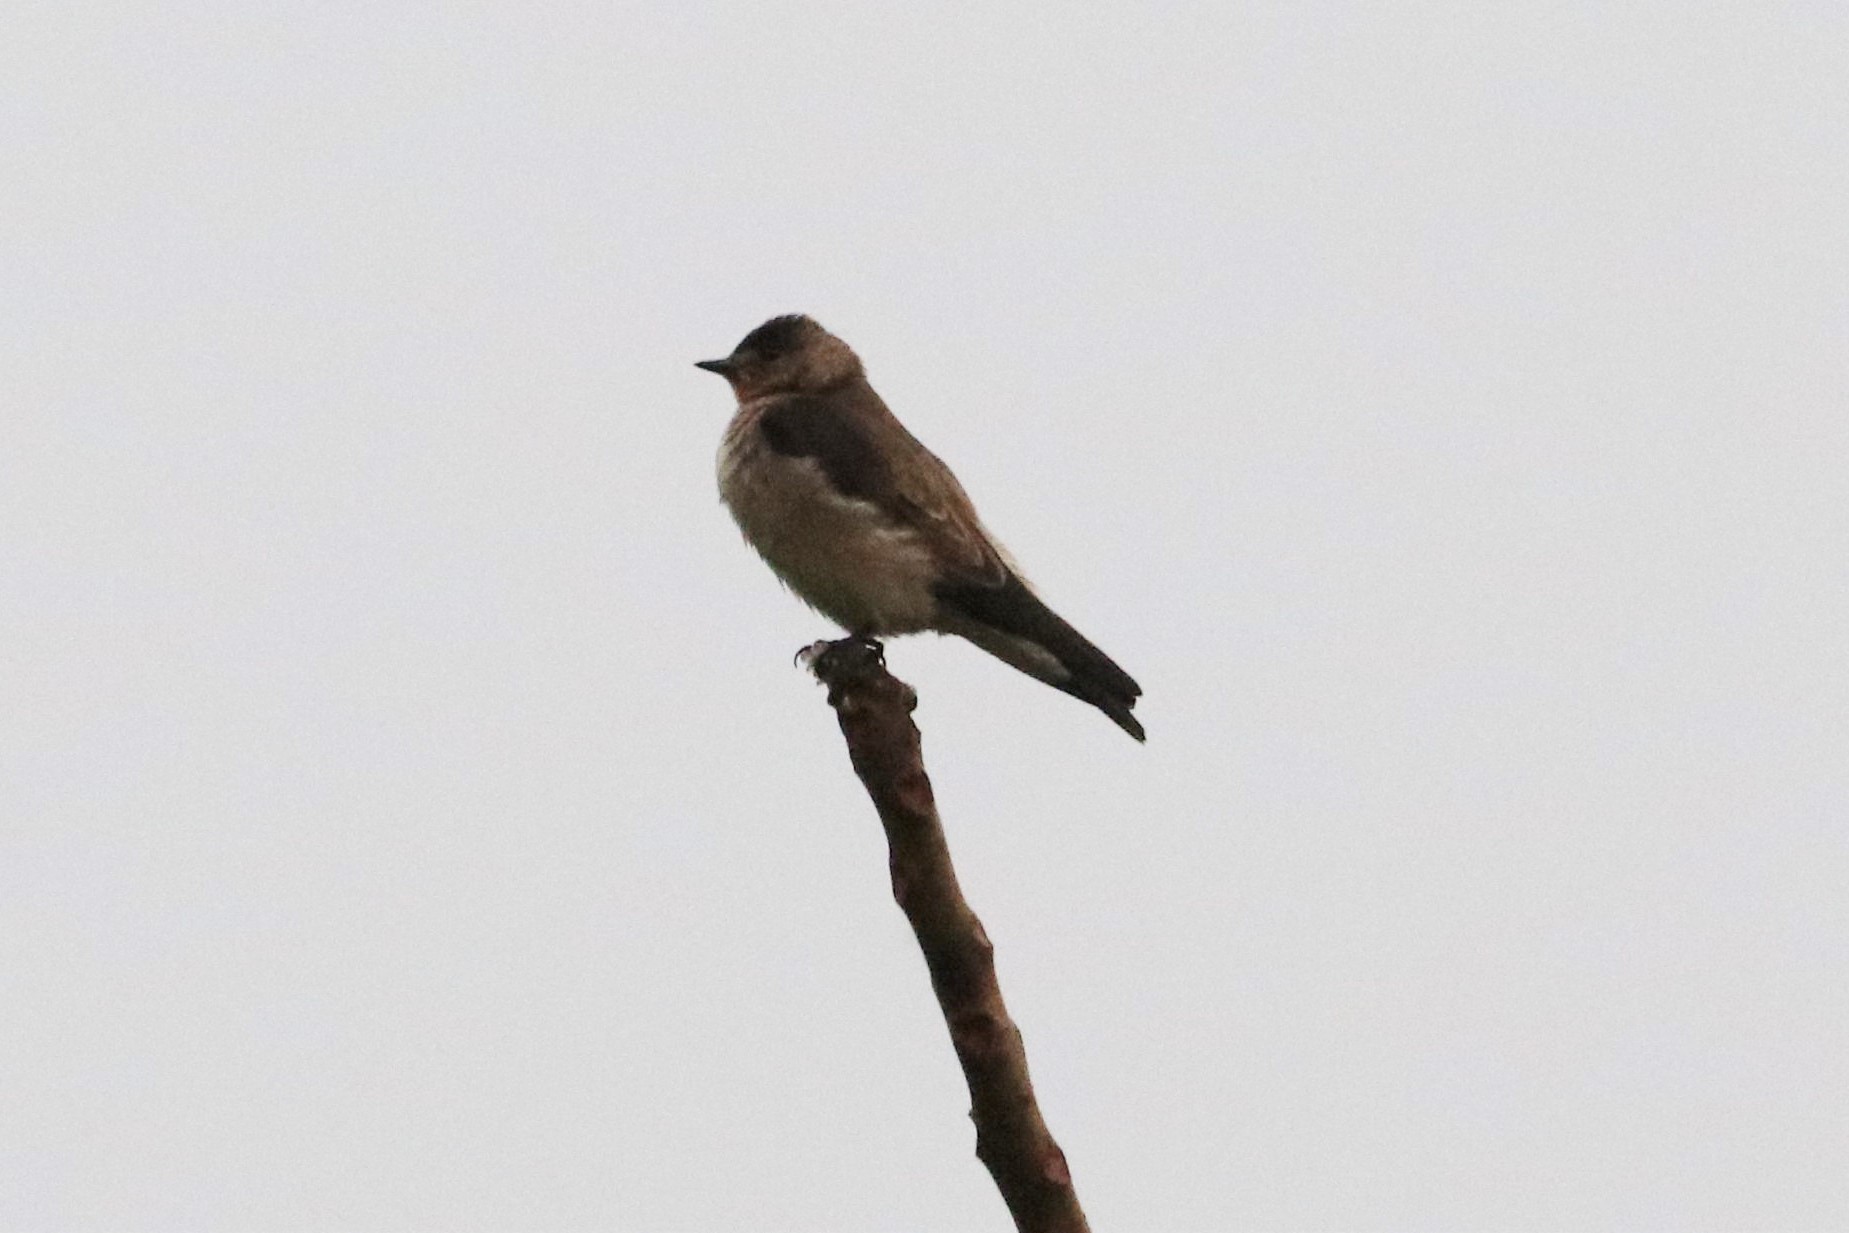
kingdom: Animalia
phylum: Chordata
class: Aves
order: Passeriformes
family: Hirundinidae
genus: Stelgidopteryx
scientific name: Stelgidopteryx ruficollis
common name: Southern rough-winged swallow
